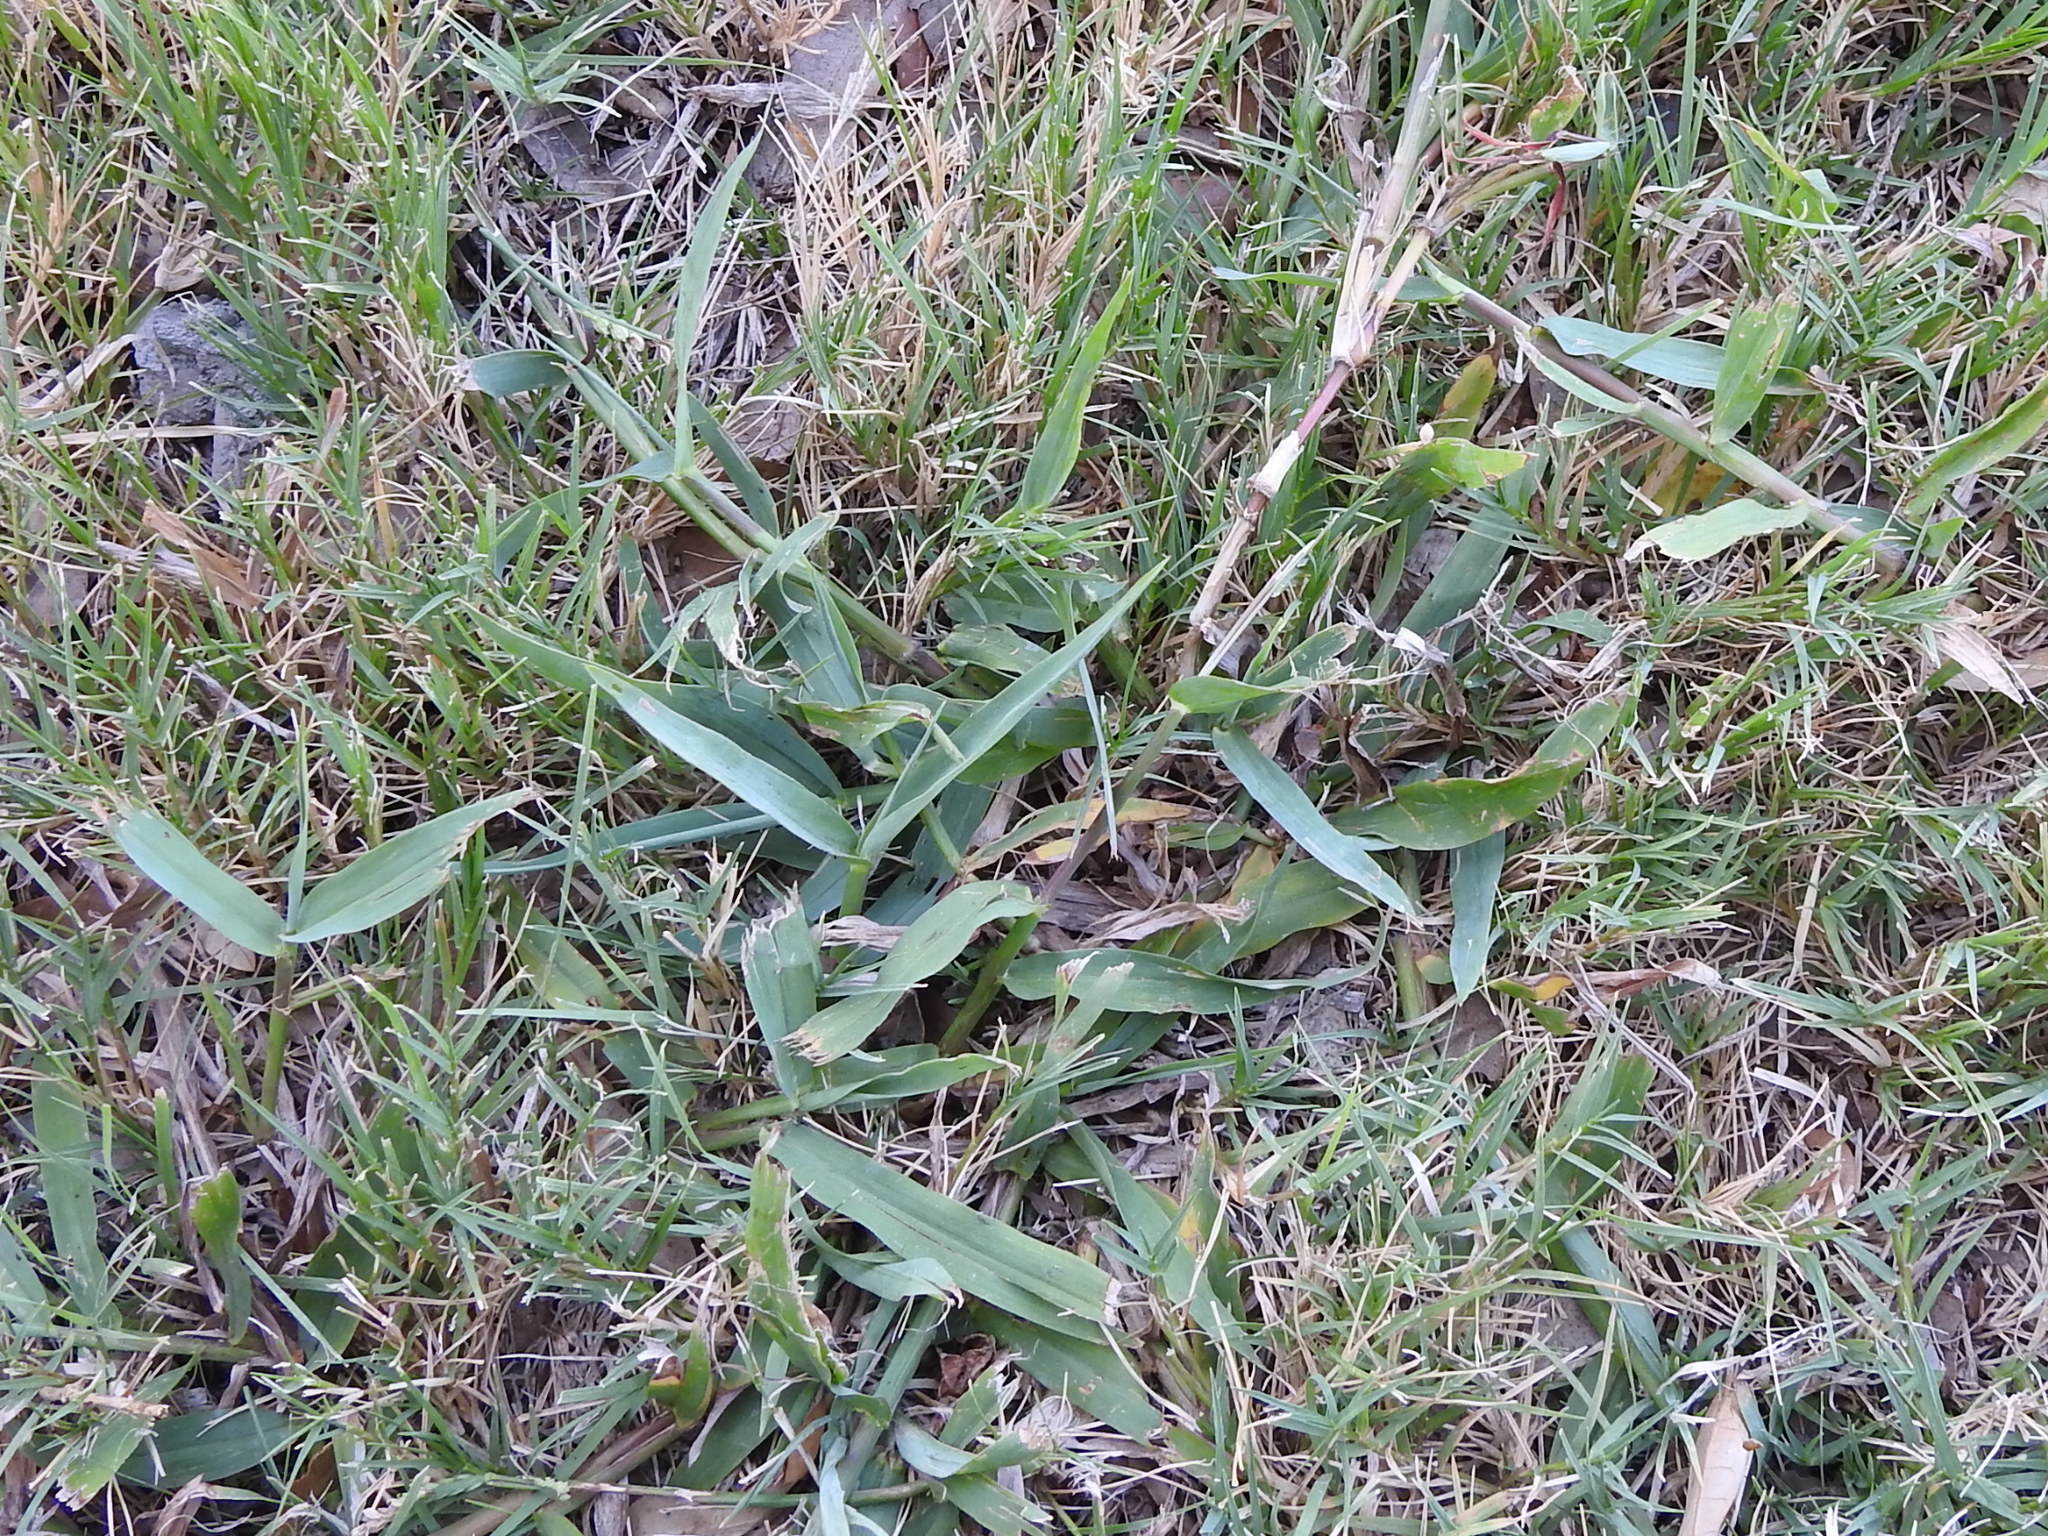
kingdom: Plantae
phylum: Tracheophyta
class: Liliopsida
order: Poales
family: Poaceae
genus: Paspalum
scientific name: Paspalum pubiflorum
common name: Hairy-seed paspalum
